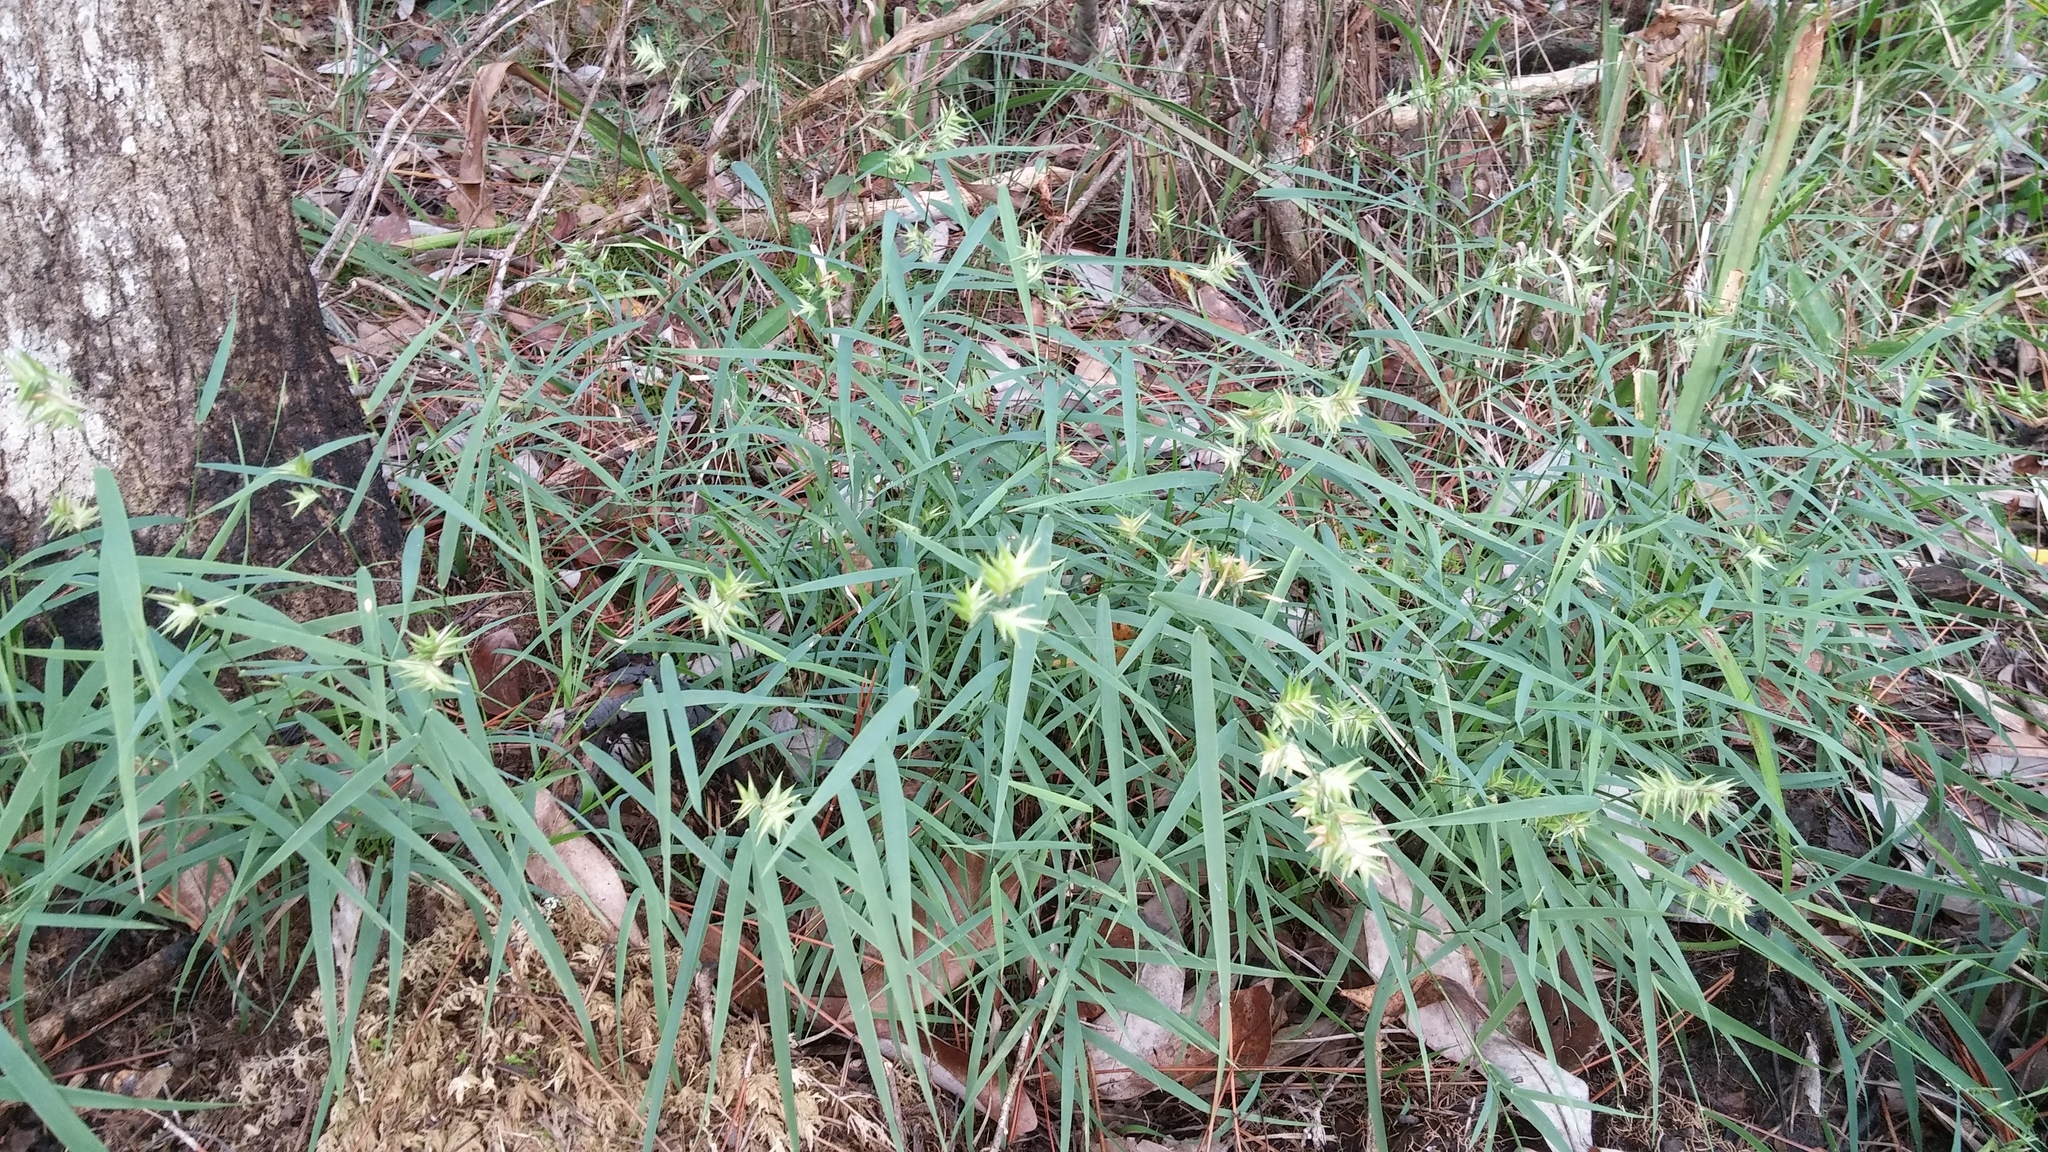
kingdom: Plantae
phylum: Tracheophyta
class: Liliopsida
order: Poales
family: Poaceae
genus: Chasmanthium
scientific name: Chasmanthium ornithorhynchum
